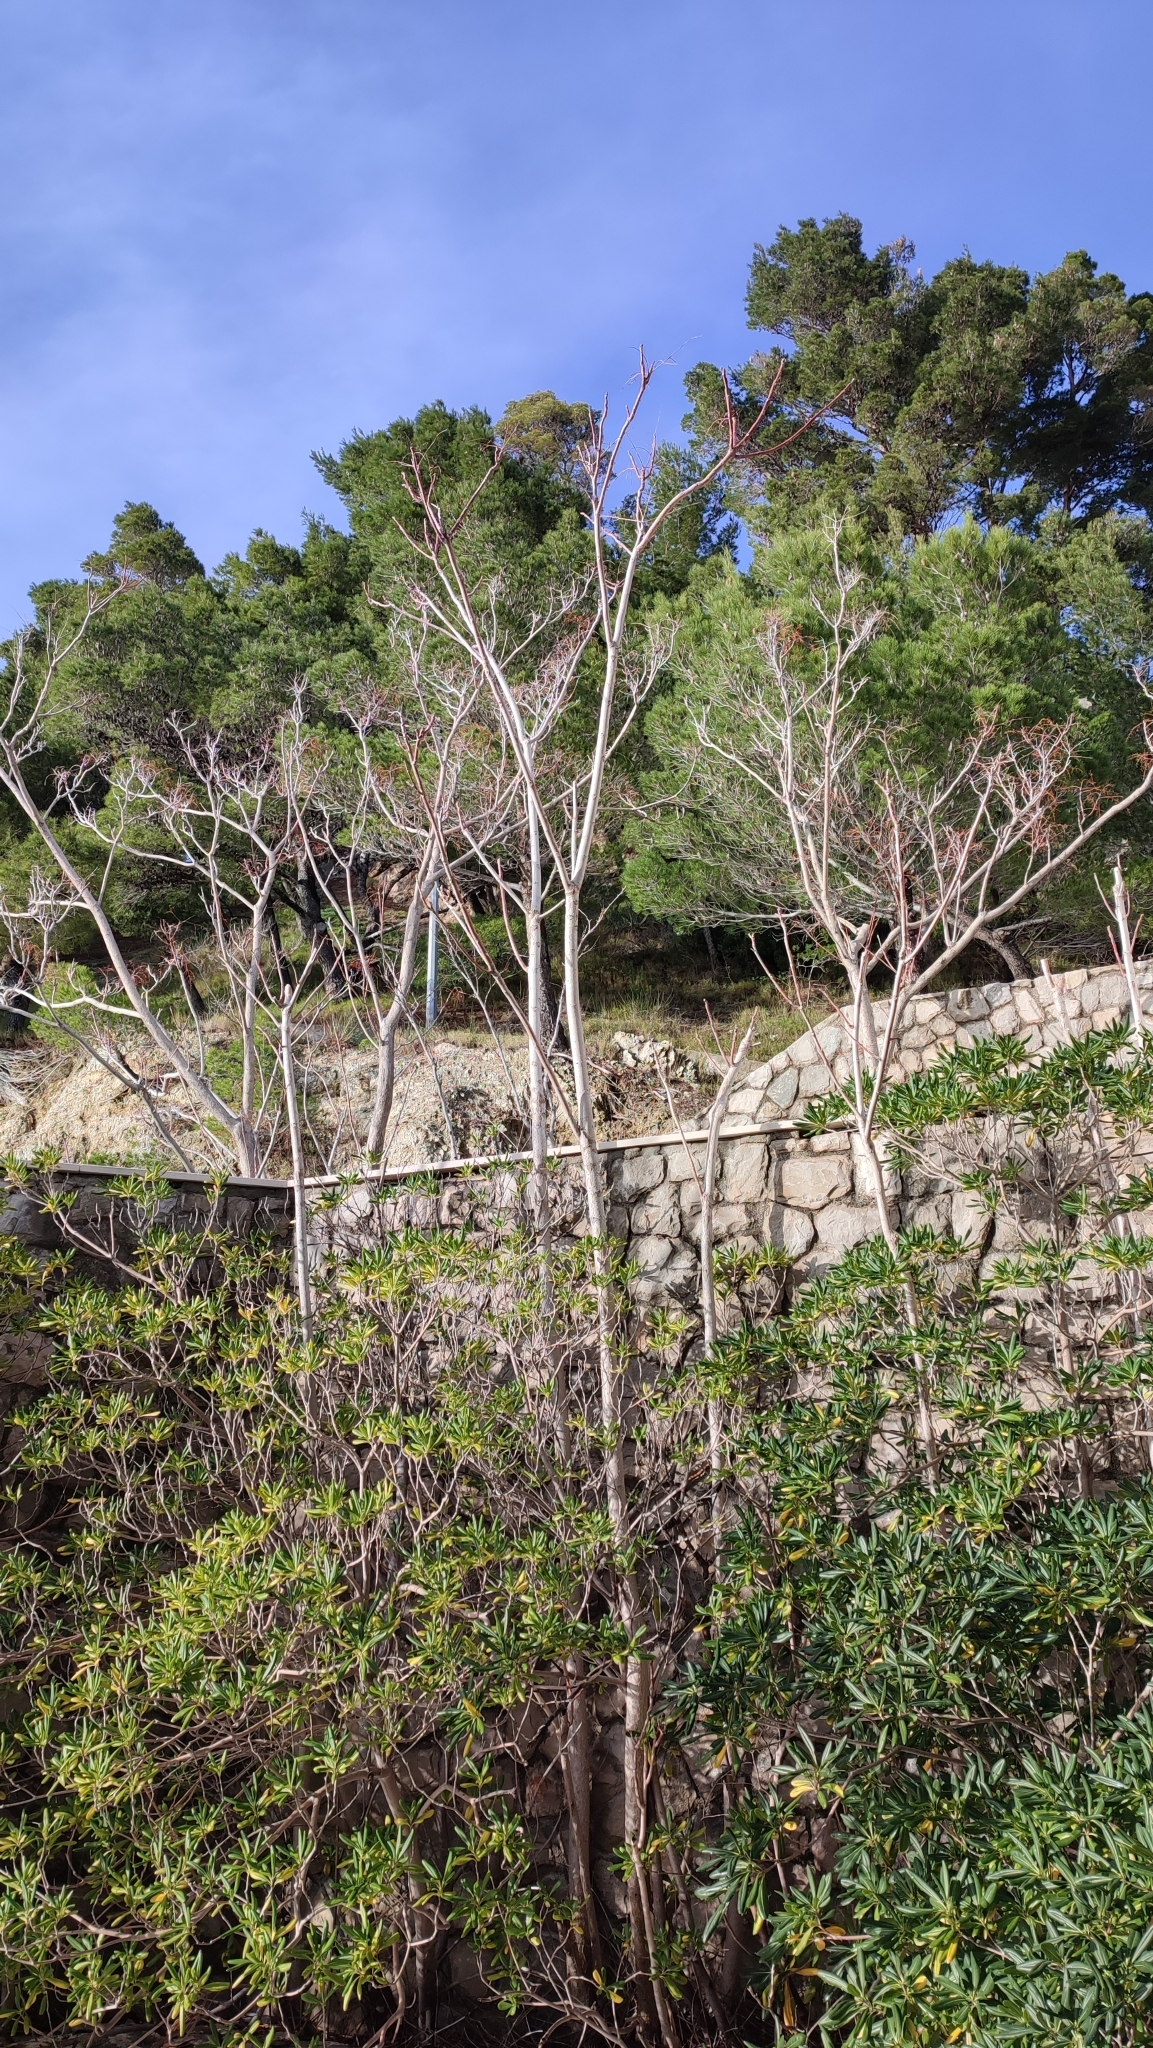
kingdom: Plantae
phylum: Tracheophyta
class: Magnoliopsida
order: Sapindales
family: Simaroubaceae
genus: Ailanthus
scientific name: Ailanthus altissima
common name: Tree-of-heaven
